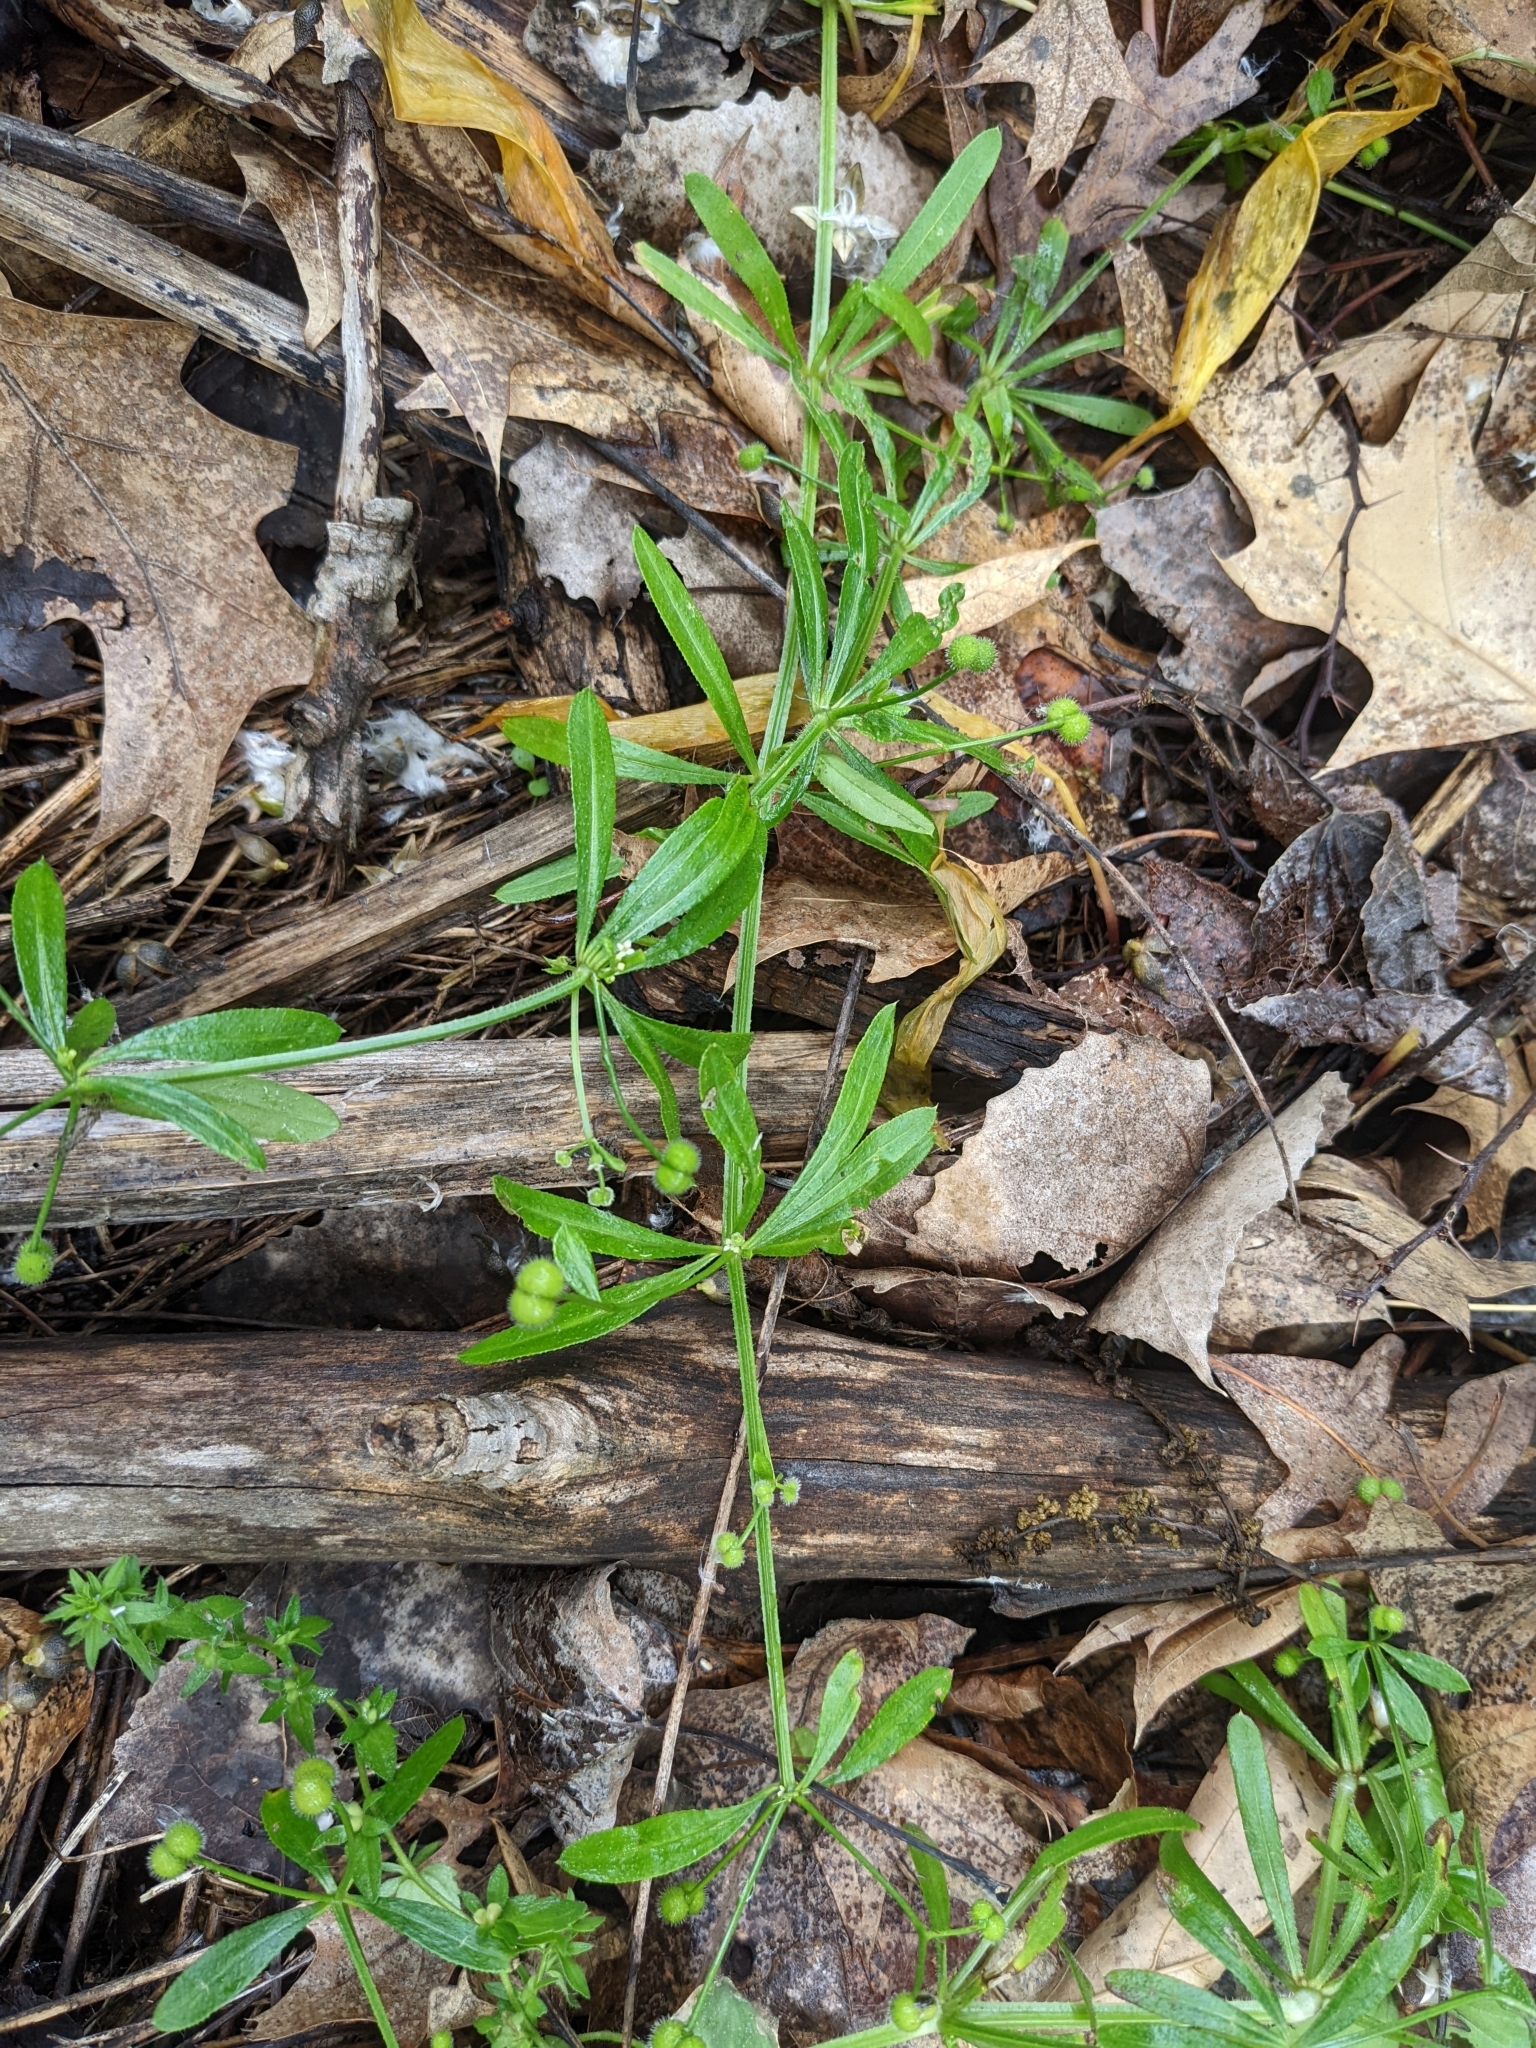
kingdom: Plantae
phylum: Tracheophyta
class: Magnoliopsida
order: Gentianales
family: Rubiaceae
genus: Galium
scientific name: Galium aparine
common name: Cleavers
